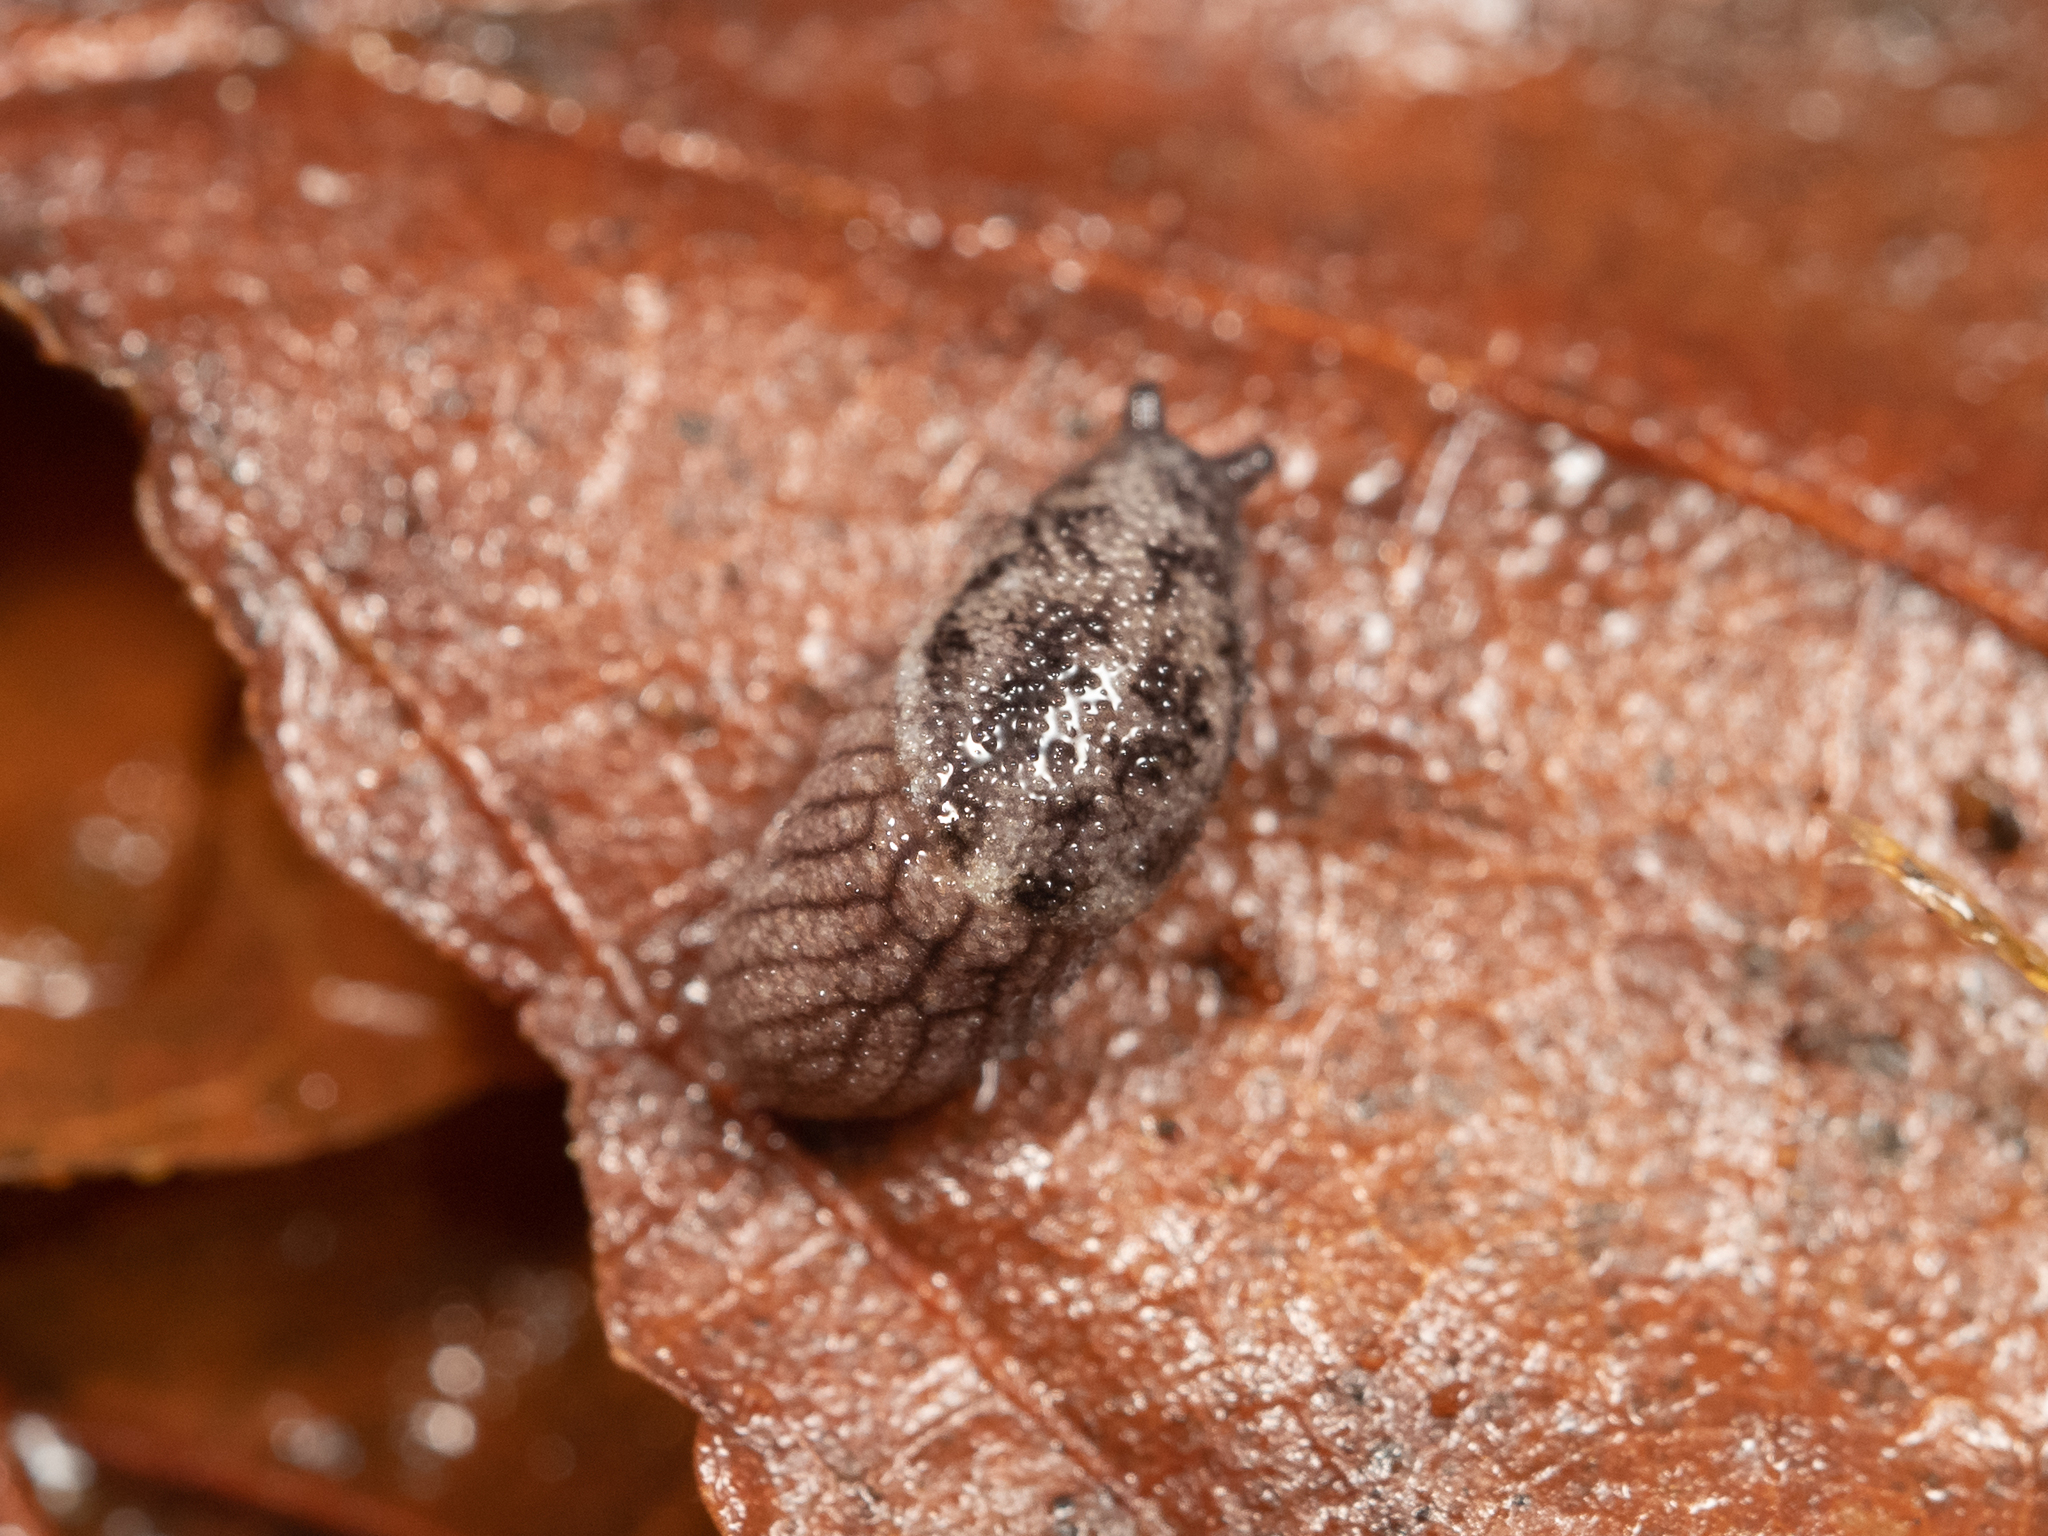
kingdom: Animalia
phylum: Mollusca
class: Gastropoda
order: Stylommatophora
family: Ariolimacidae
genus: Prophysaon
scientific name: Prophysaon dubium
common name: Papillose taildropper
